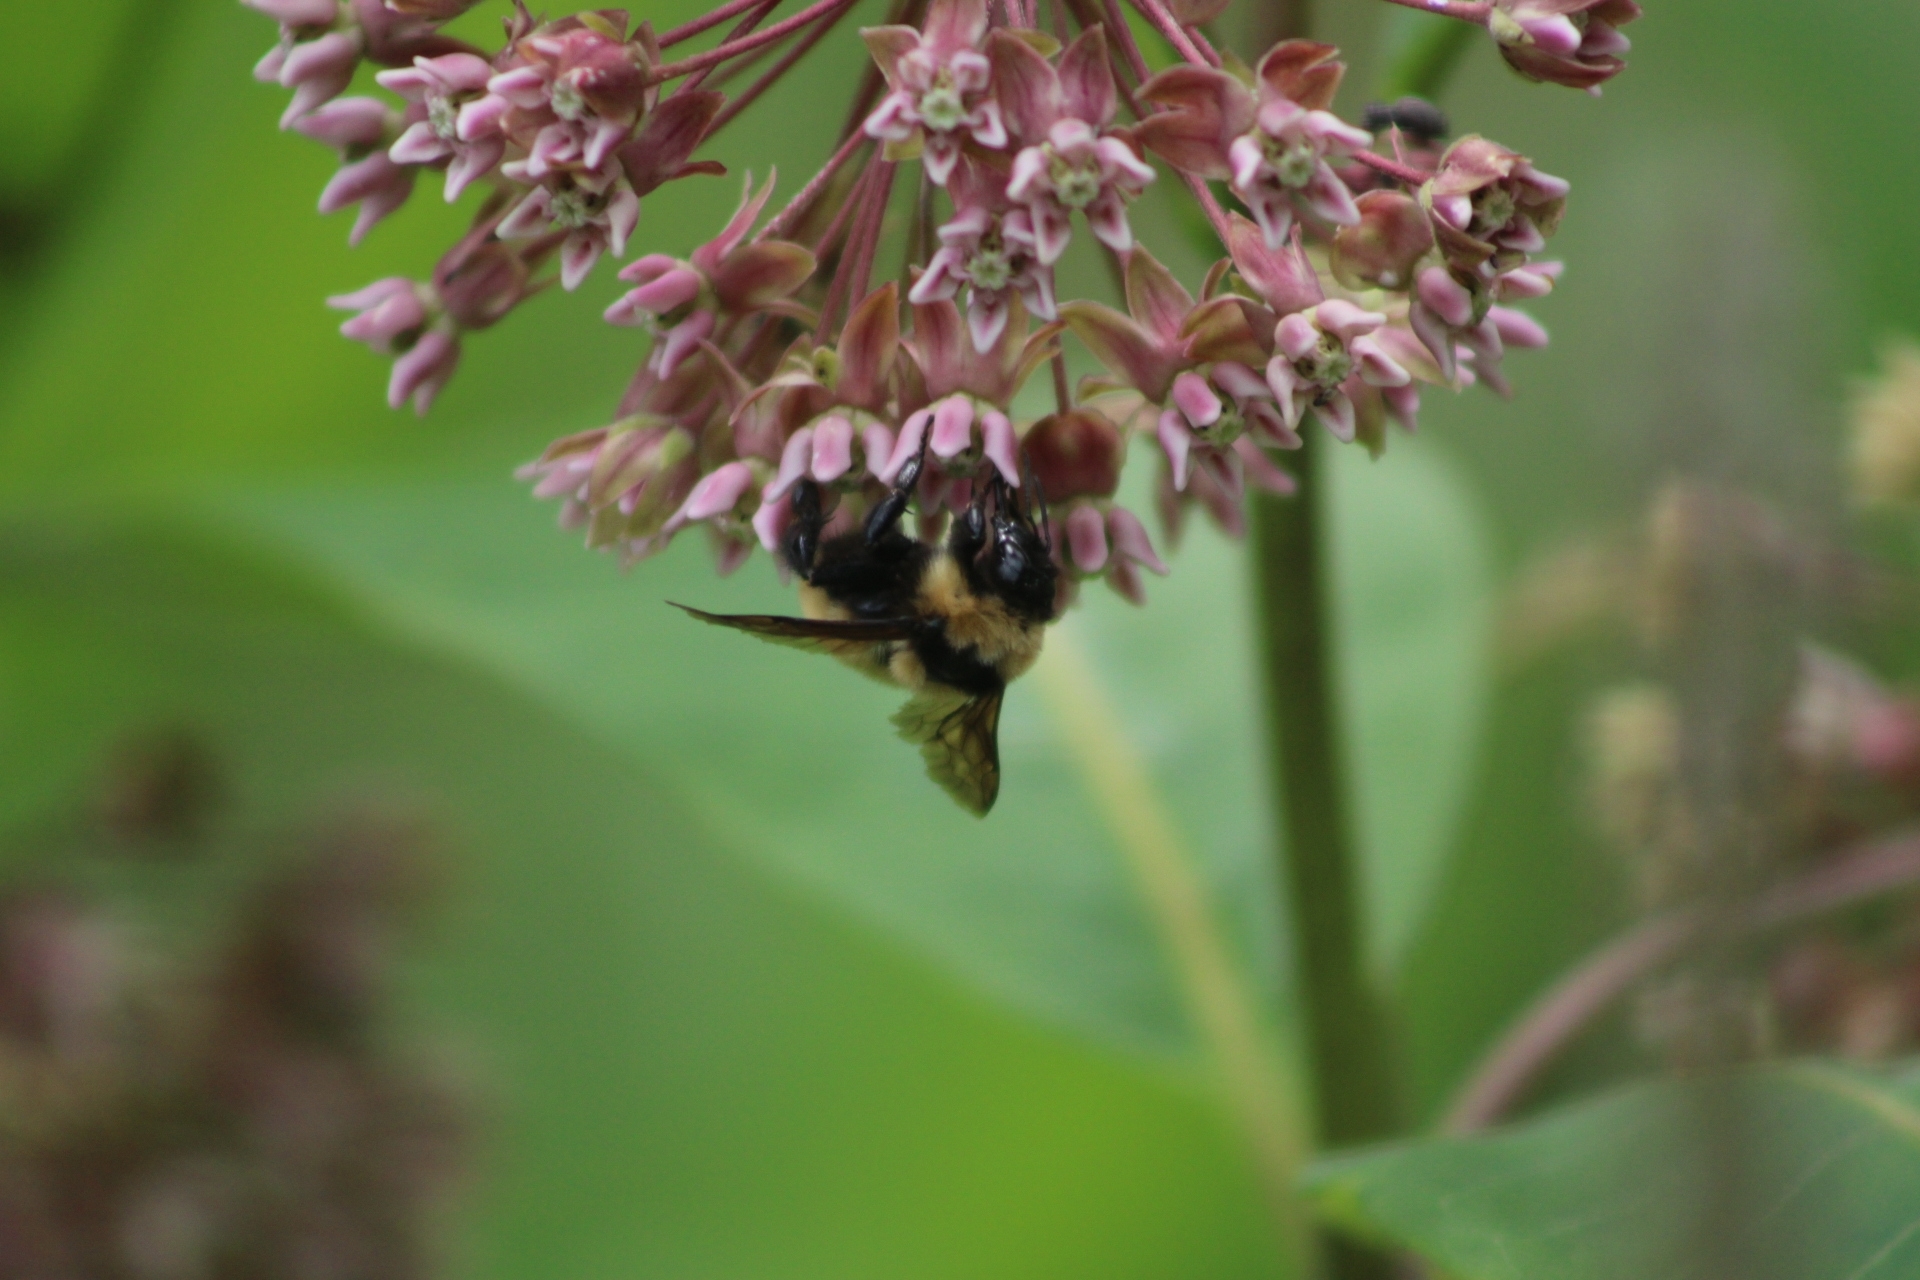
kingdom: Animalia
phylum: Arthropoda
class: Insecta
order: Hymenoptera
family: Apidae
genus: Bombus
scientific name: Bombus fervidus
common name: Yellow bumble bee
